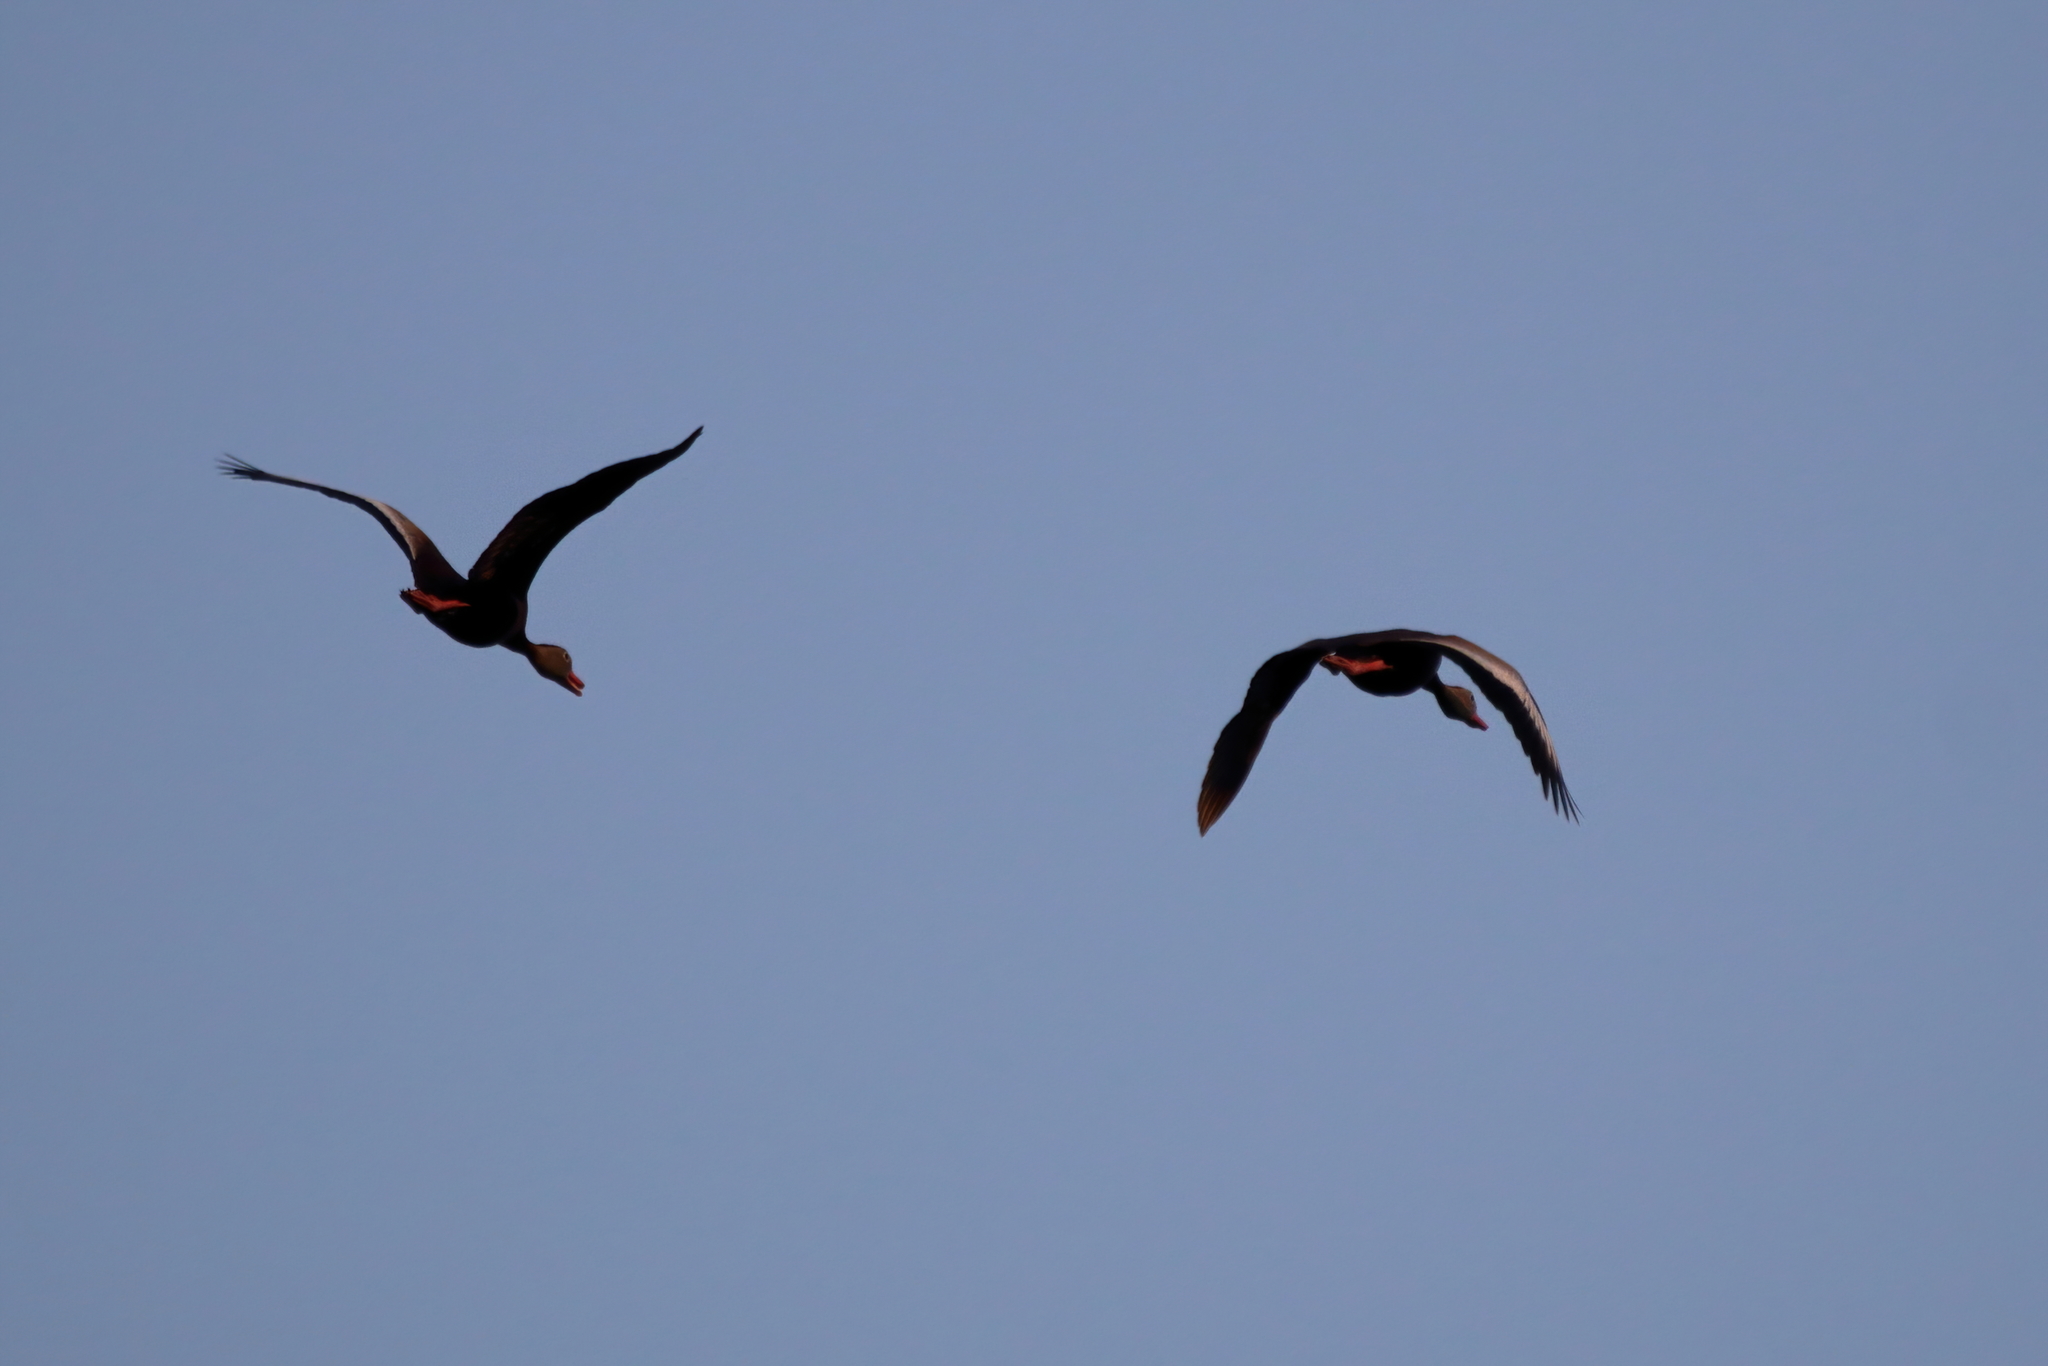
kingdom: Animalia
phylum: Chordata
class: Aves
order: Anseriformes
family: Anatidae
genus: Dendrocygna
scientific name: Dendrocygna autumnalis
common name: Black-bellied whistling duck
